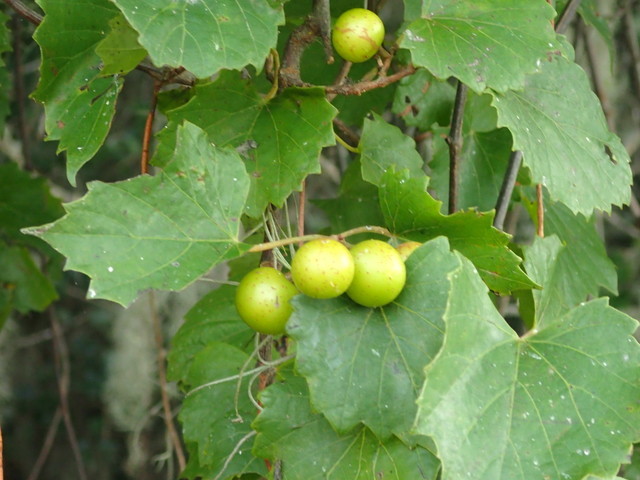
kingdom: Plantae
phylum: Tracheophyta
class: Magnoliopsida
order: Vitales
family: Vitaceae
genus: Vitis
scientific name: Vitis rotundifolia
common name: Muscadine grape
